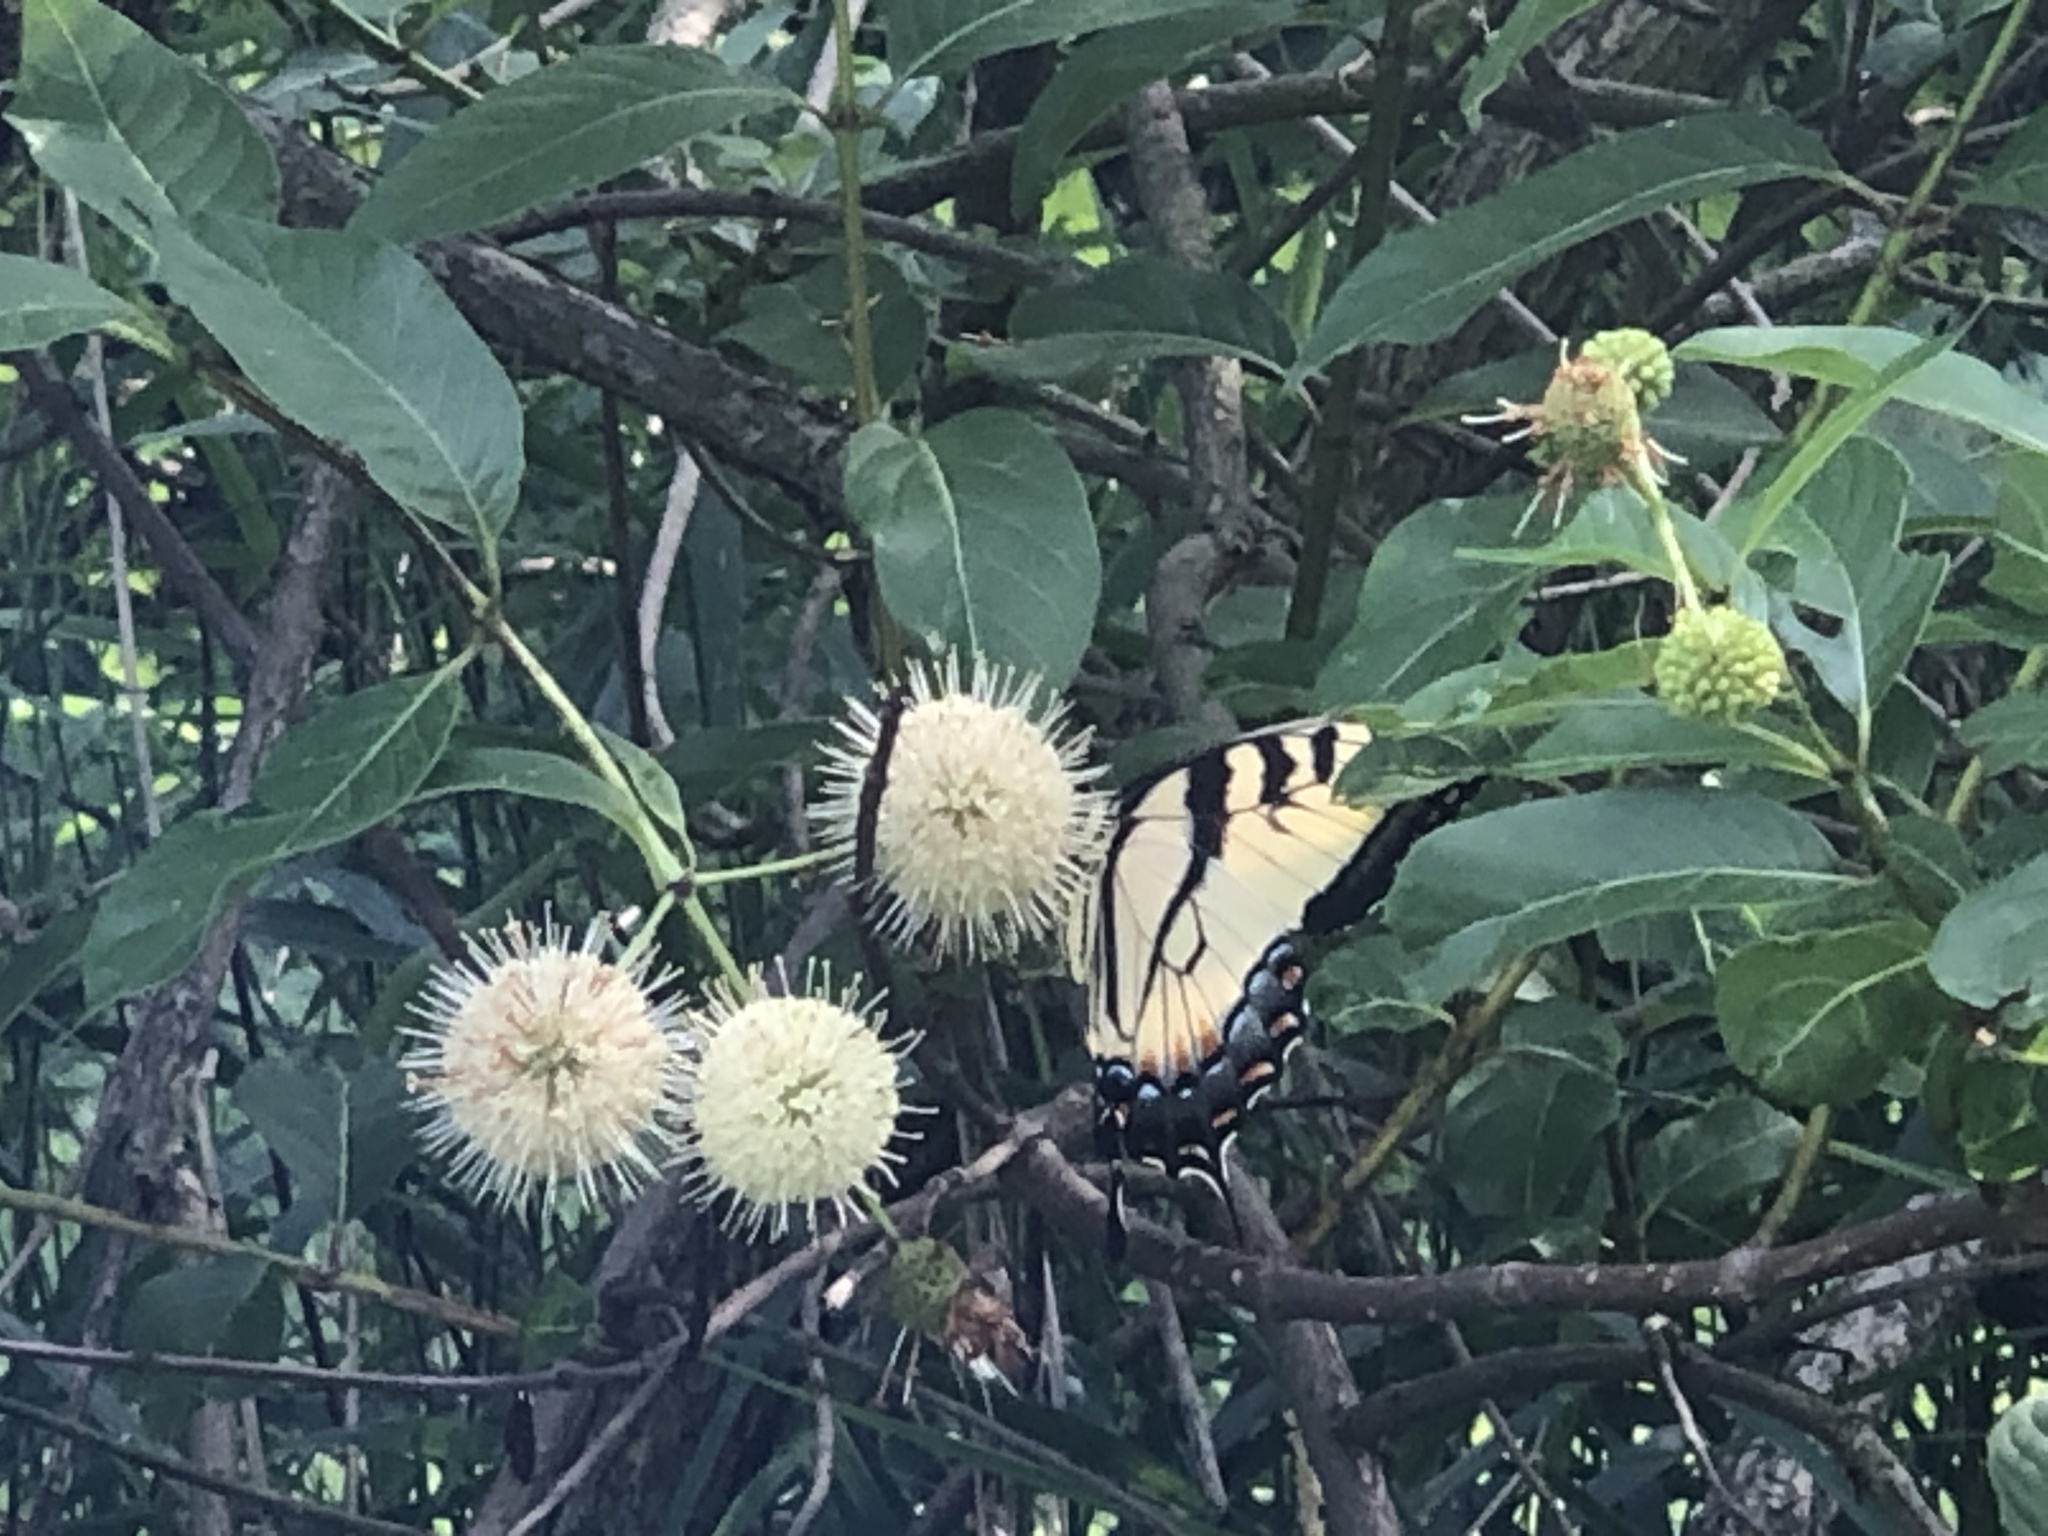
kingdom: Animalia
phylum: Arthropoda
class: Insecta
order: Lepidoptera
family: Papilionidae
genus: Papilio
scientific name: Papilio glaucus
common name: Tiger swallowtail
